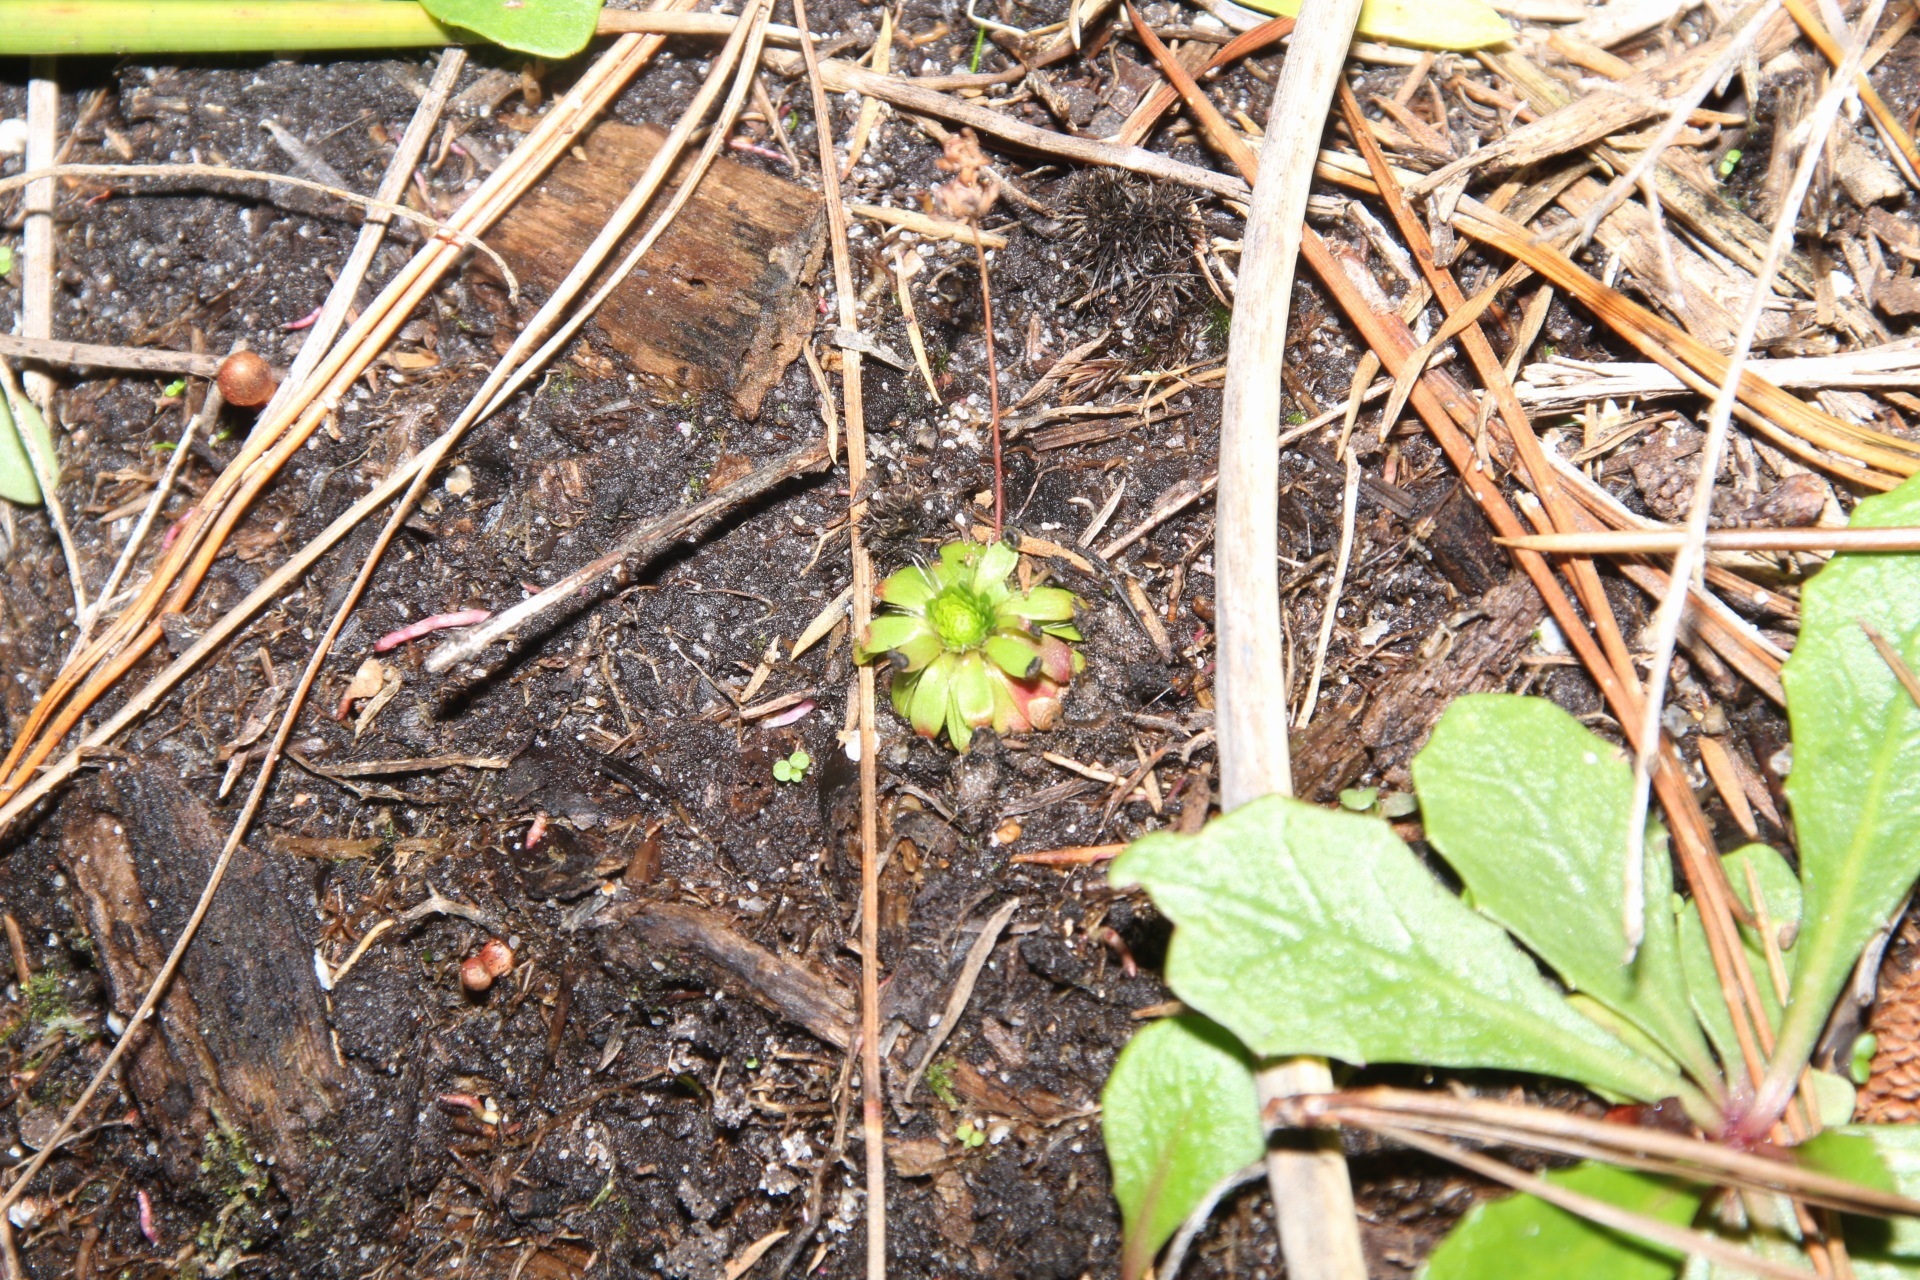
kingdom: Plantae
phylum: Tracheophyta
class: Magnoliopsida
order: Caryophyllales
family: Droseraceae
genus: Drosera
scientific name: Drosera pulchella
